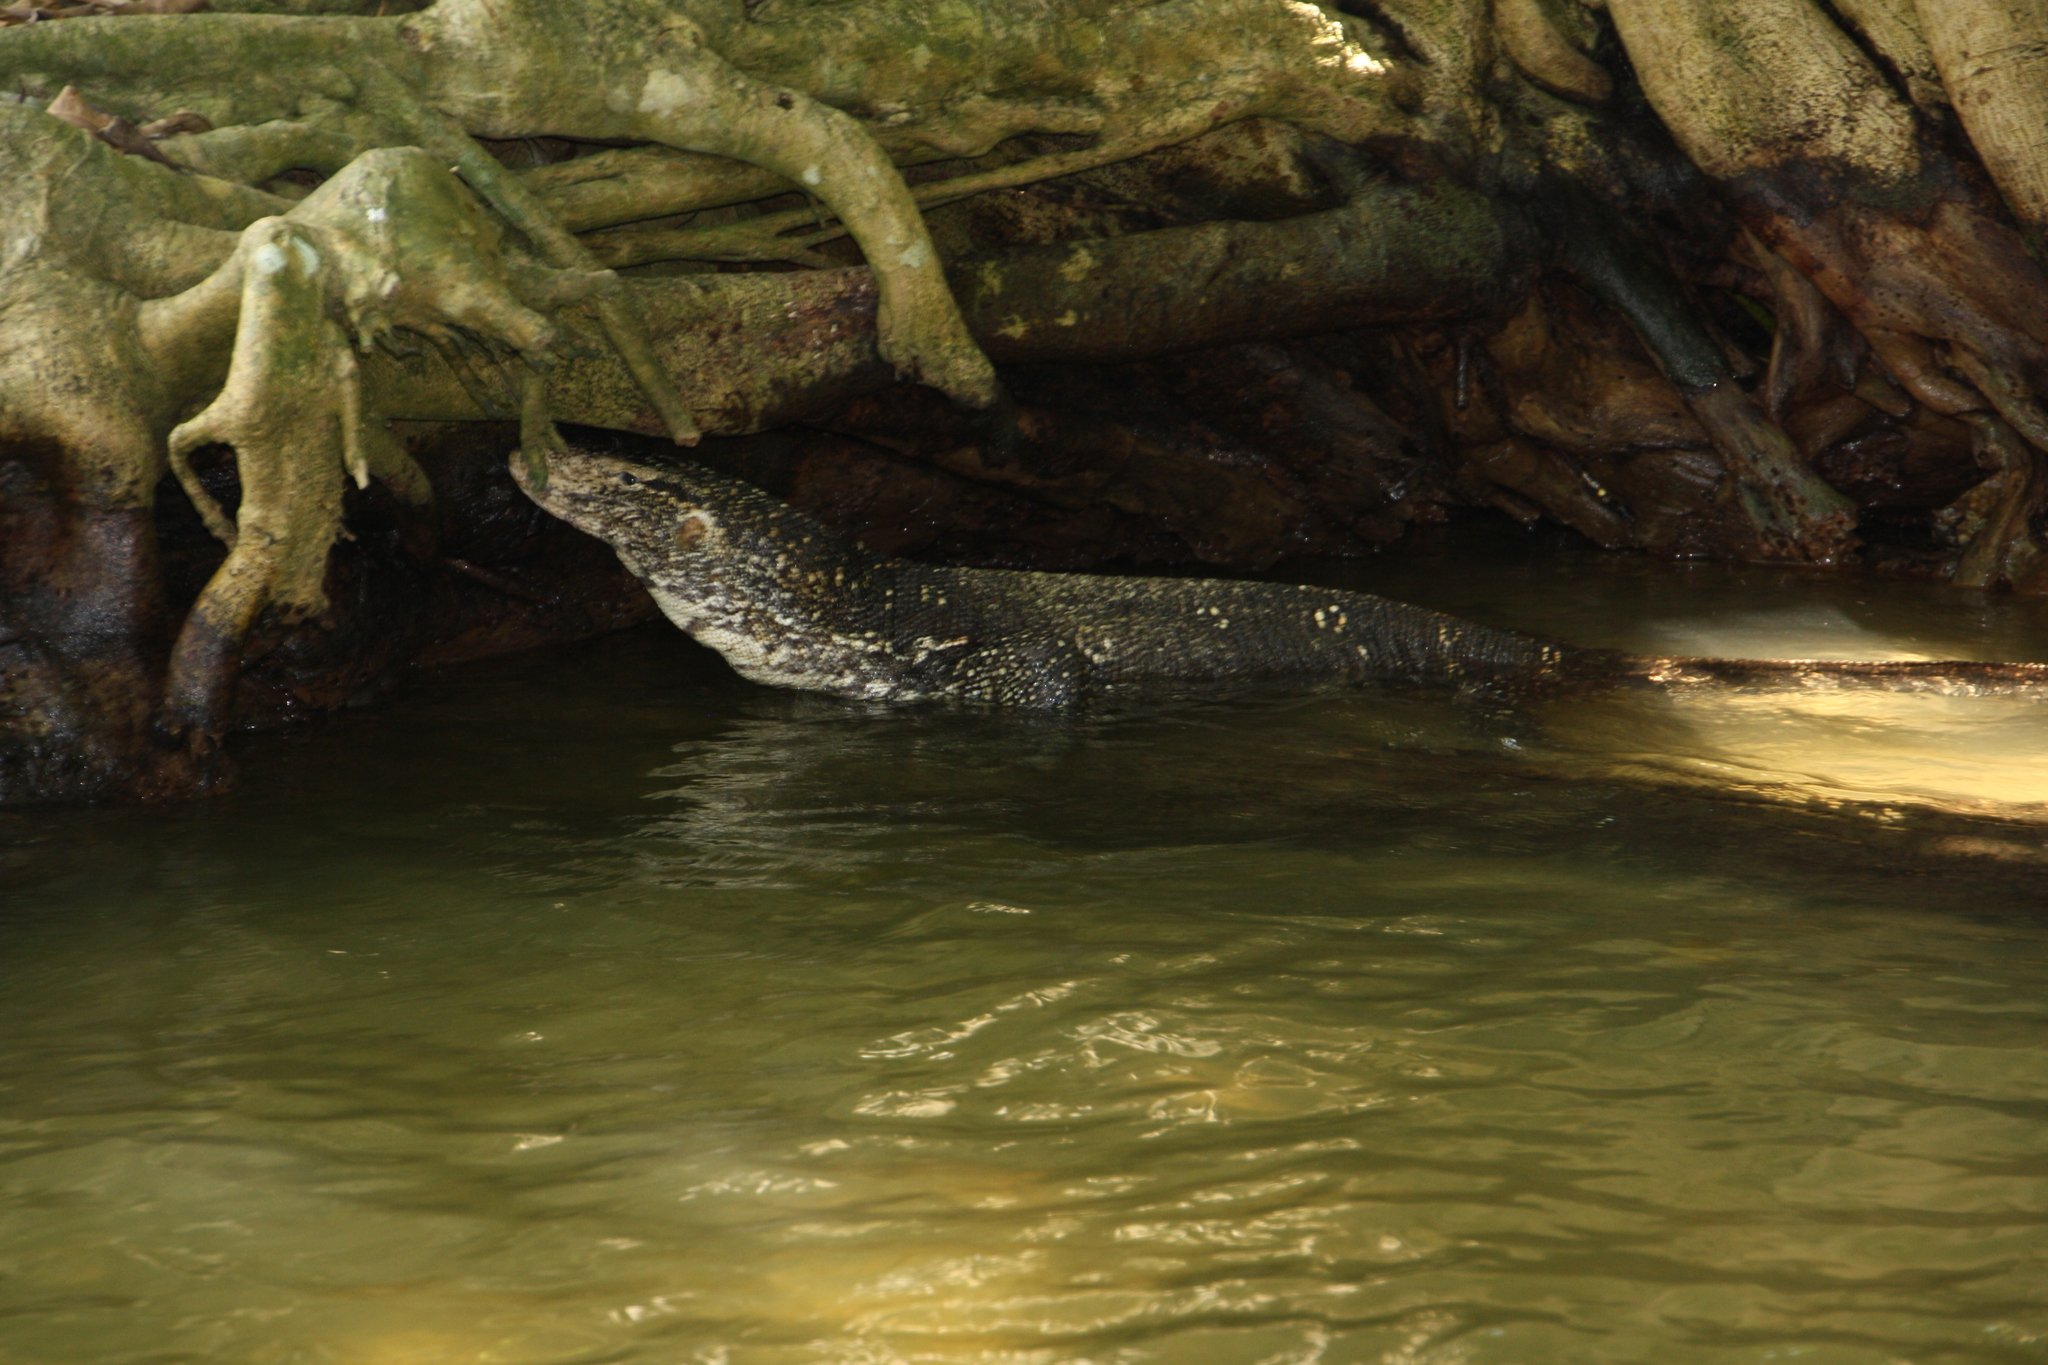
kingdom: Animalia
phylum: Chordata
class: Squamata
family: Varanidae
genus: Varanus
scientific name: Varanus salvator
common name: Common water monitor
